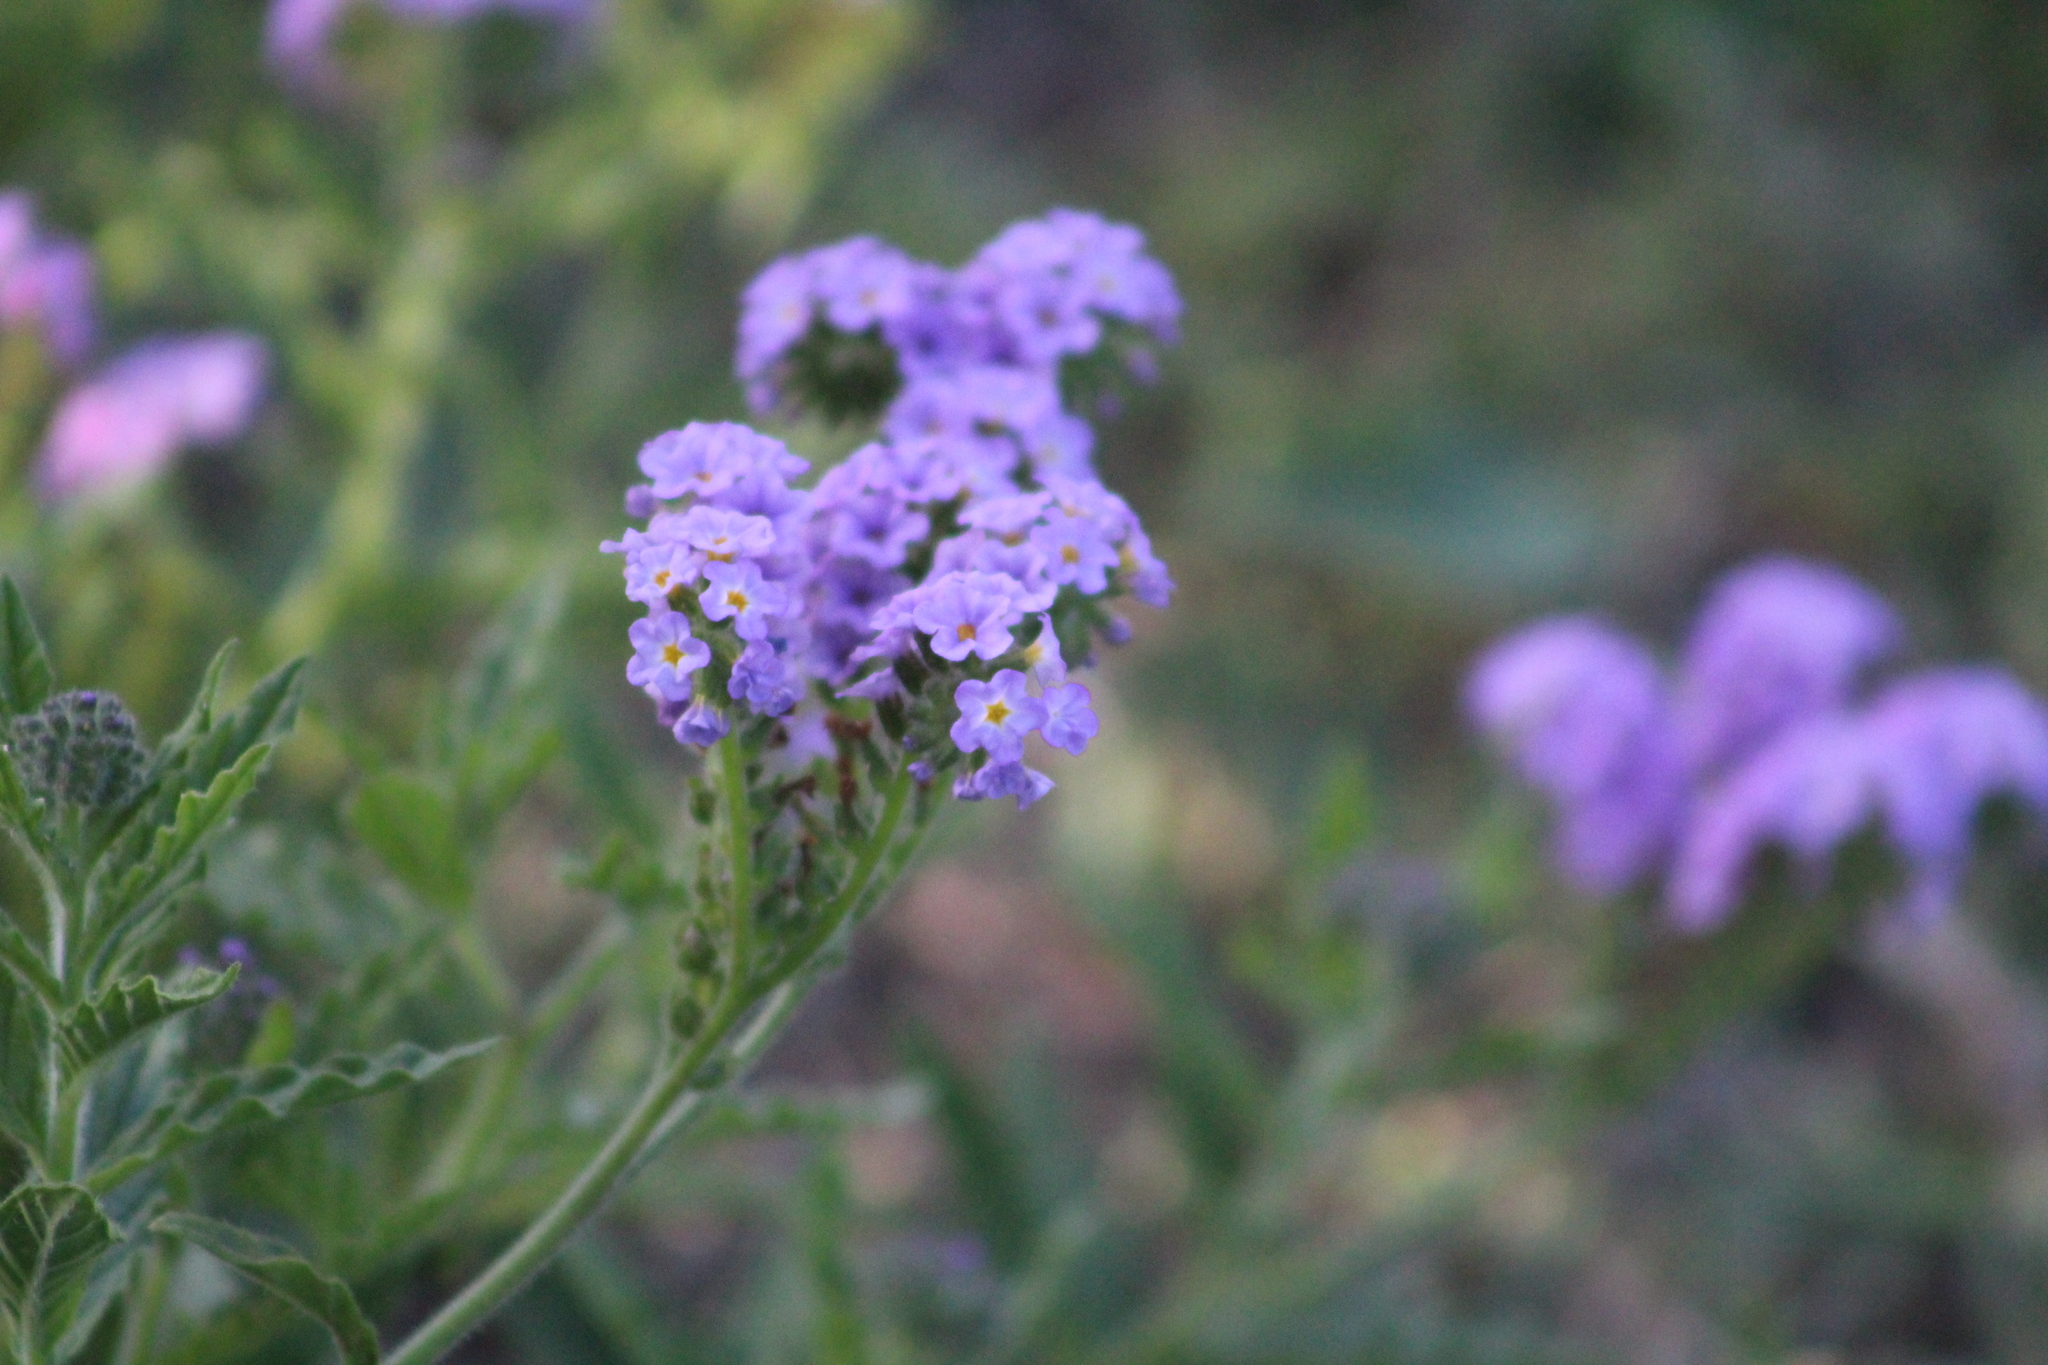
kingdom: Plantae
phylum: Tracheophyta
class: Magnoliopsida
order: Boraginales
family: Heliotropiaceae
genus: Heliotropium
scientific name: Heliotropium amplexicaule
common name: Clasping heliotrope
